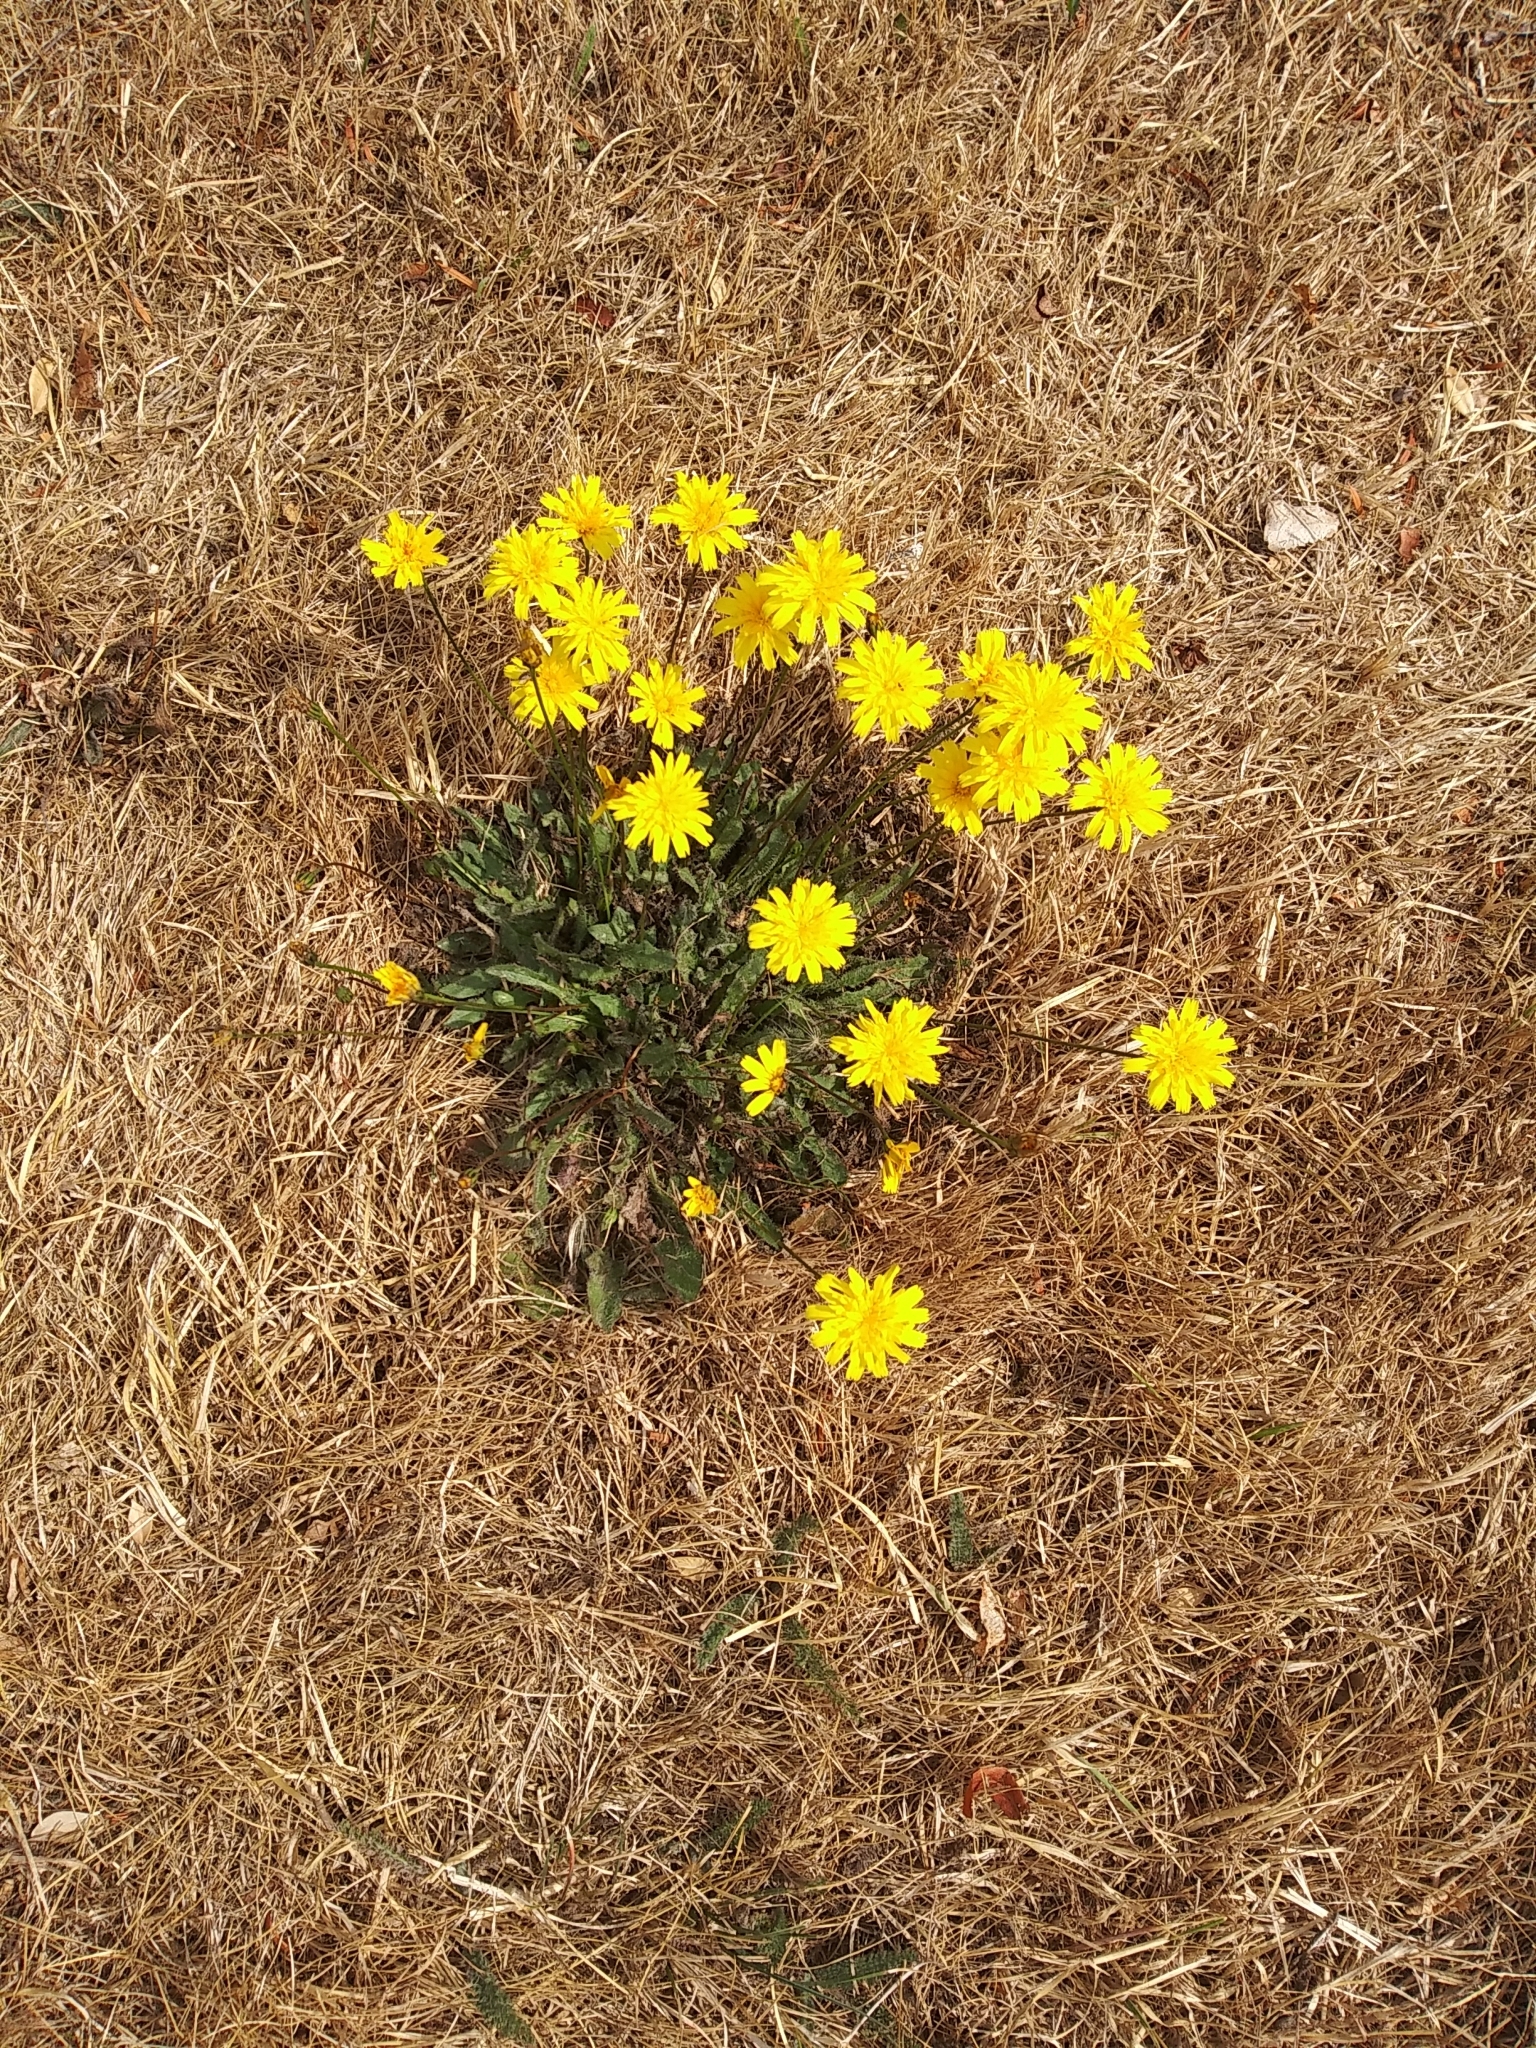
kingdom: Plantae
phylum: Tracheophyta
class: Magnoliopsida
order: Asterales
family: Asteraceae
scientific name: Asteraceae
